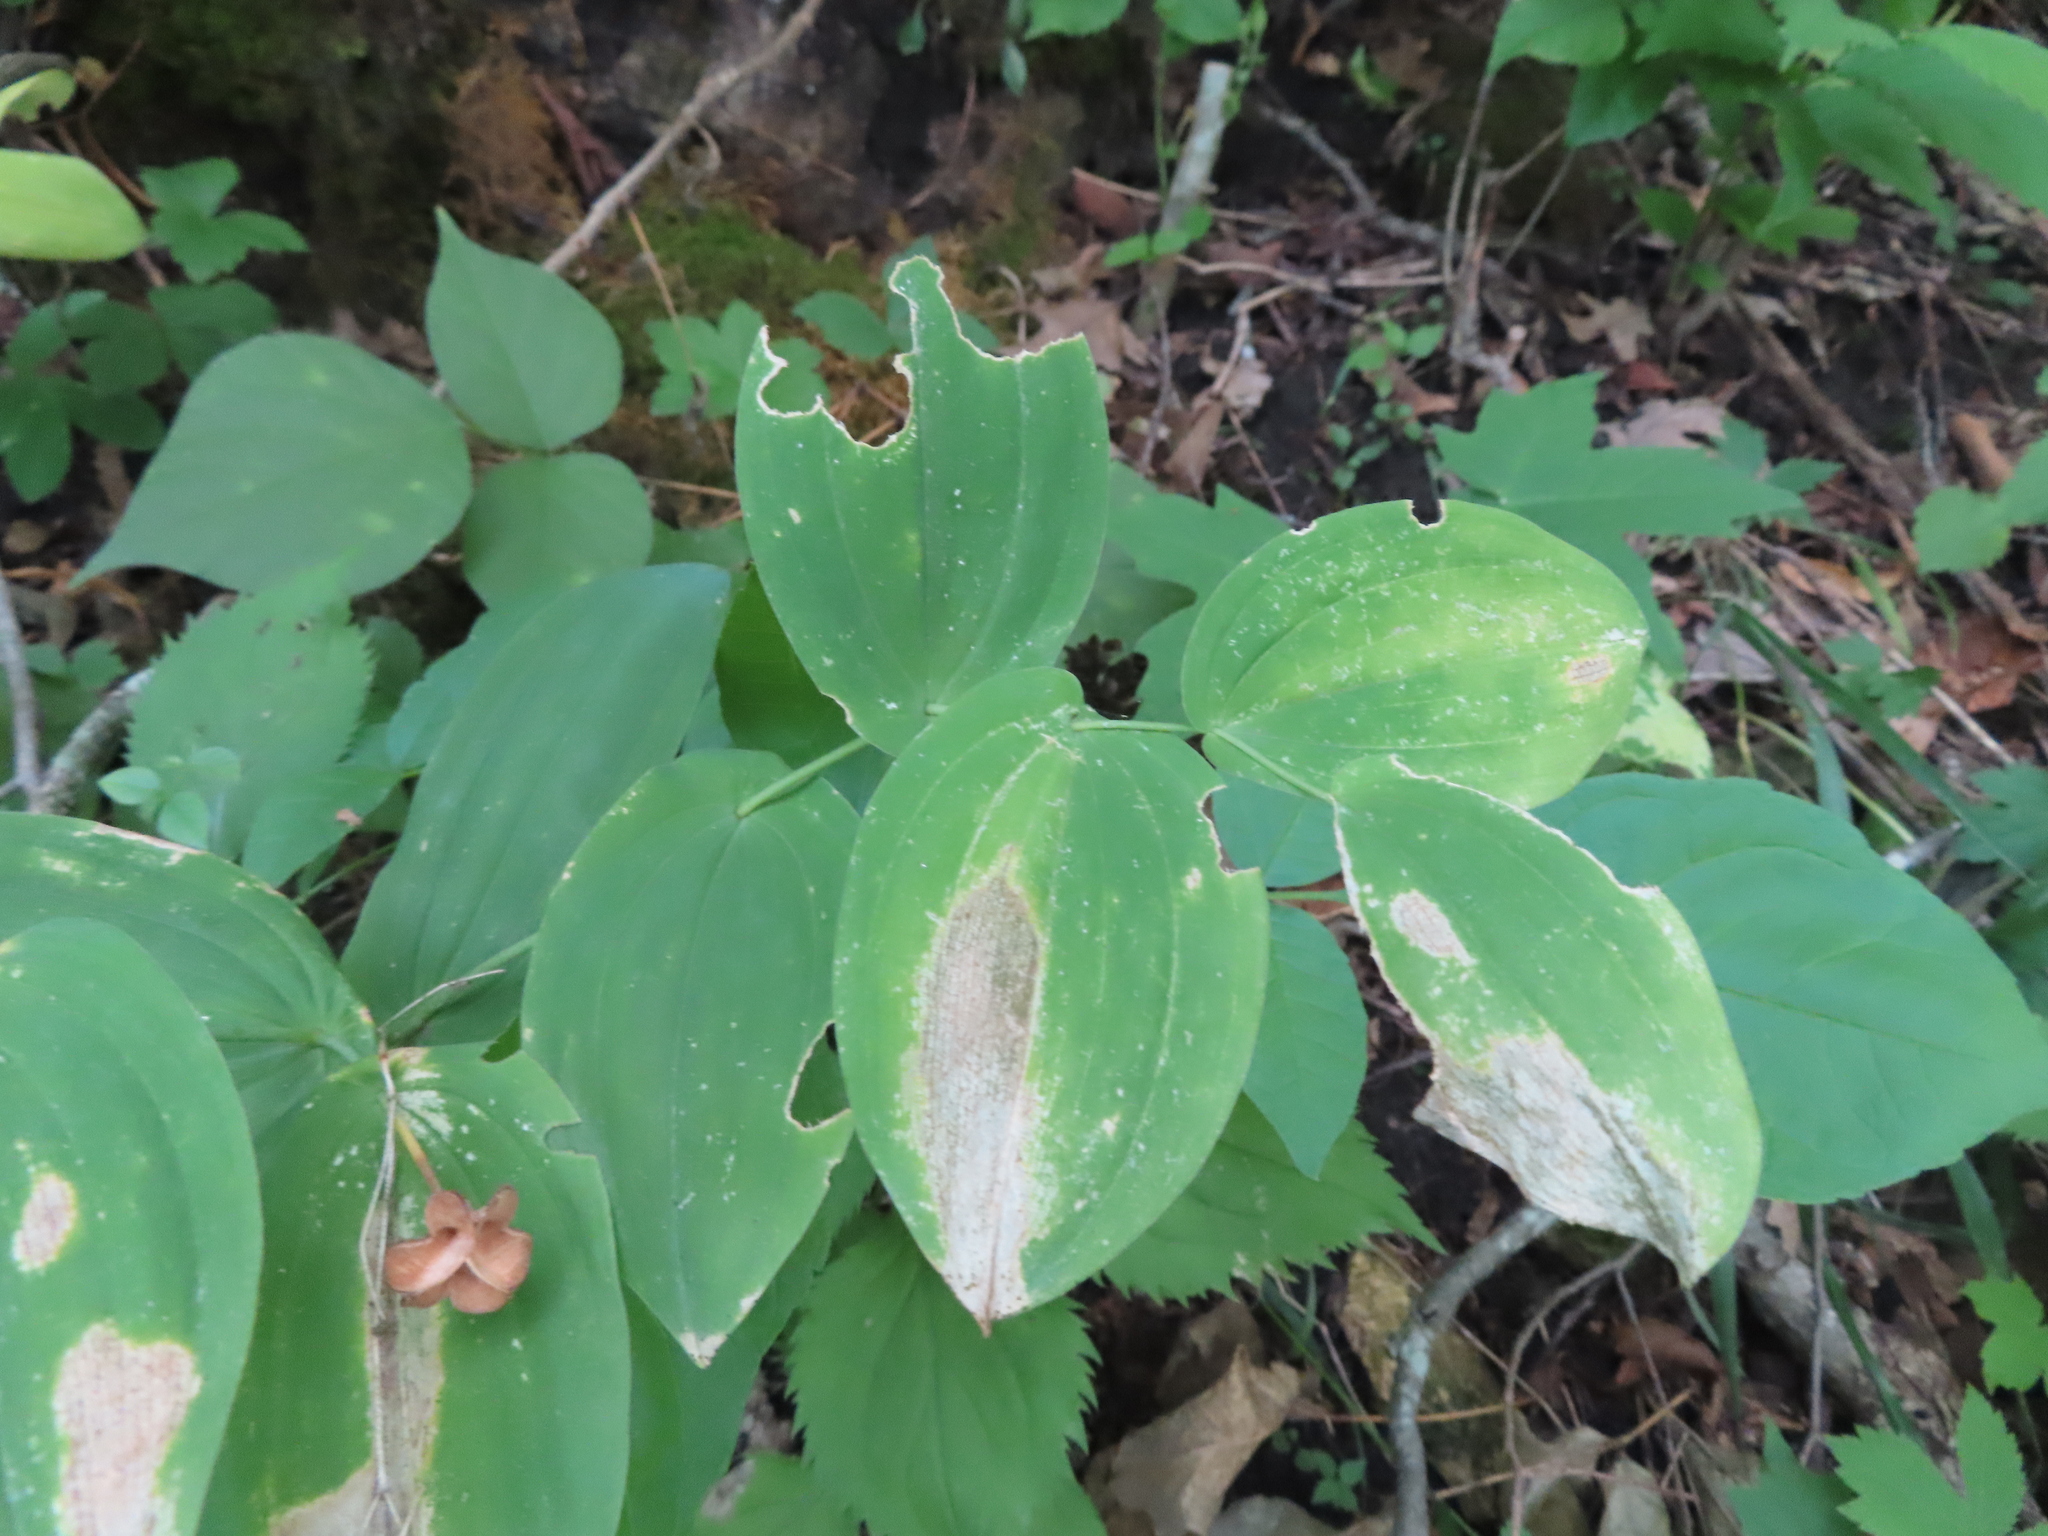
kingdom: Plantae
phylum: Tracheophyta
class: Liliopsida
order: Liliales
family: Colchicaceae
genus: Uvularia
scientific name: Uvularia grandiflora
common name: Bellwort
